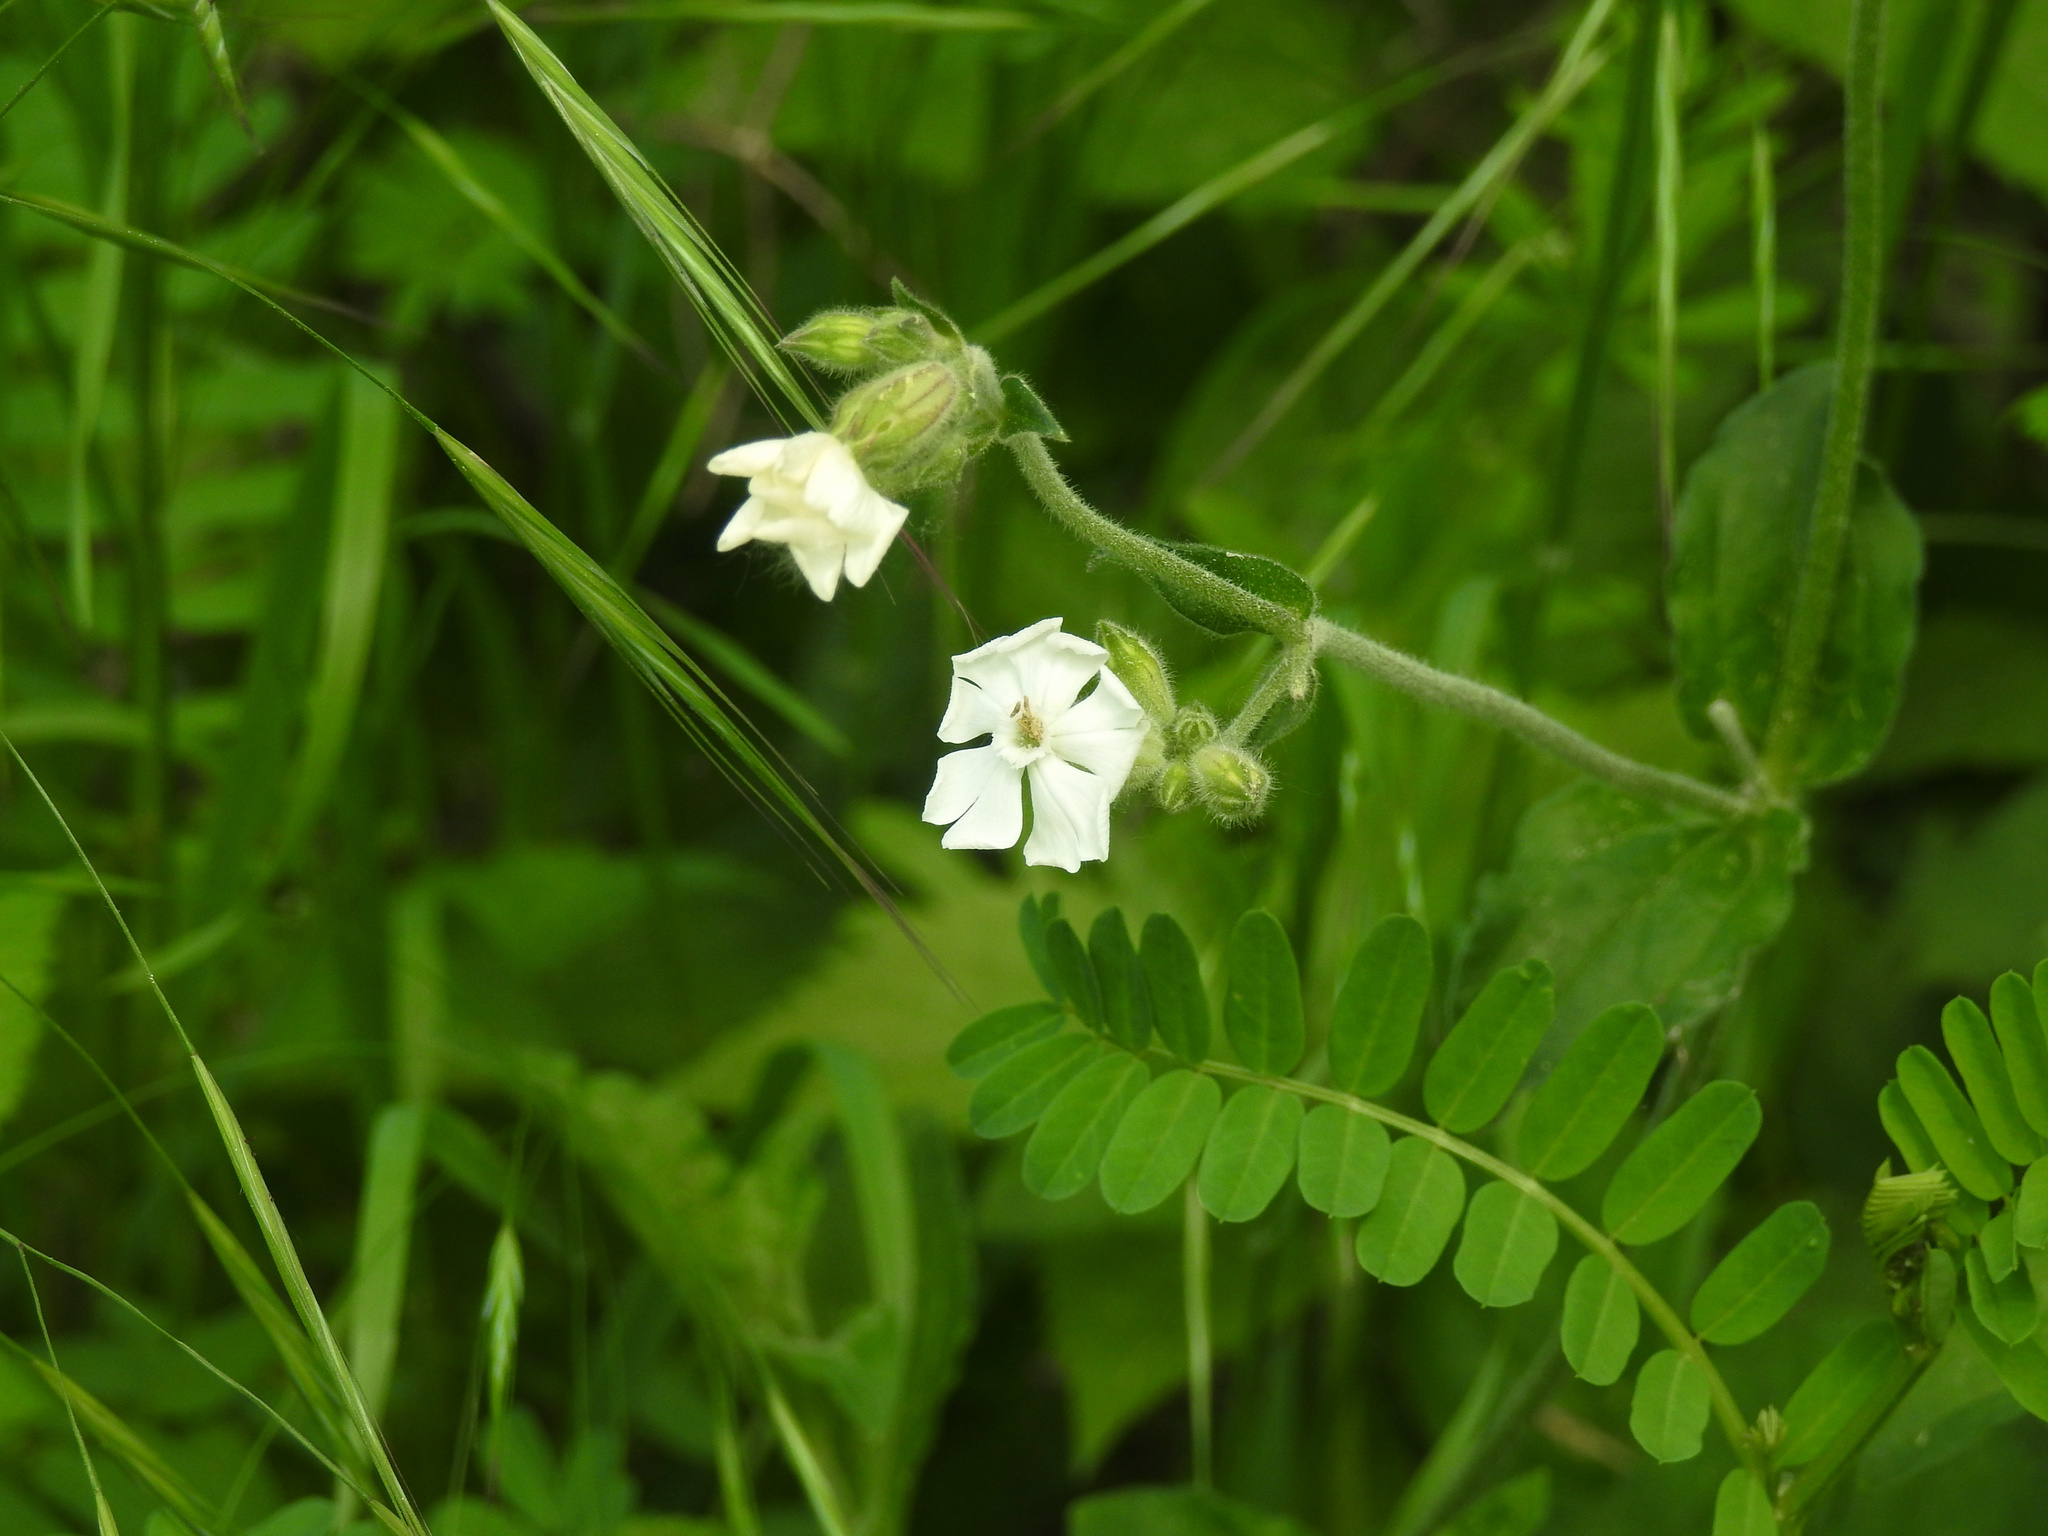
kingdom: Plantae
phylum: Tracheophyta
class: Magnoliopsida
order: Caryophyllales
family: Caryophyllaceae
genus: Silene
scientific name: Silene latifolia
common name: White campion
